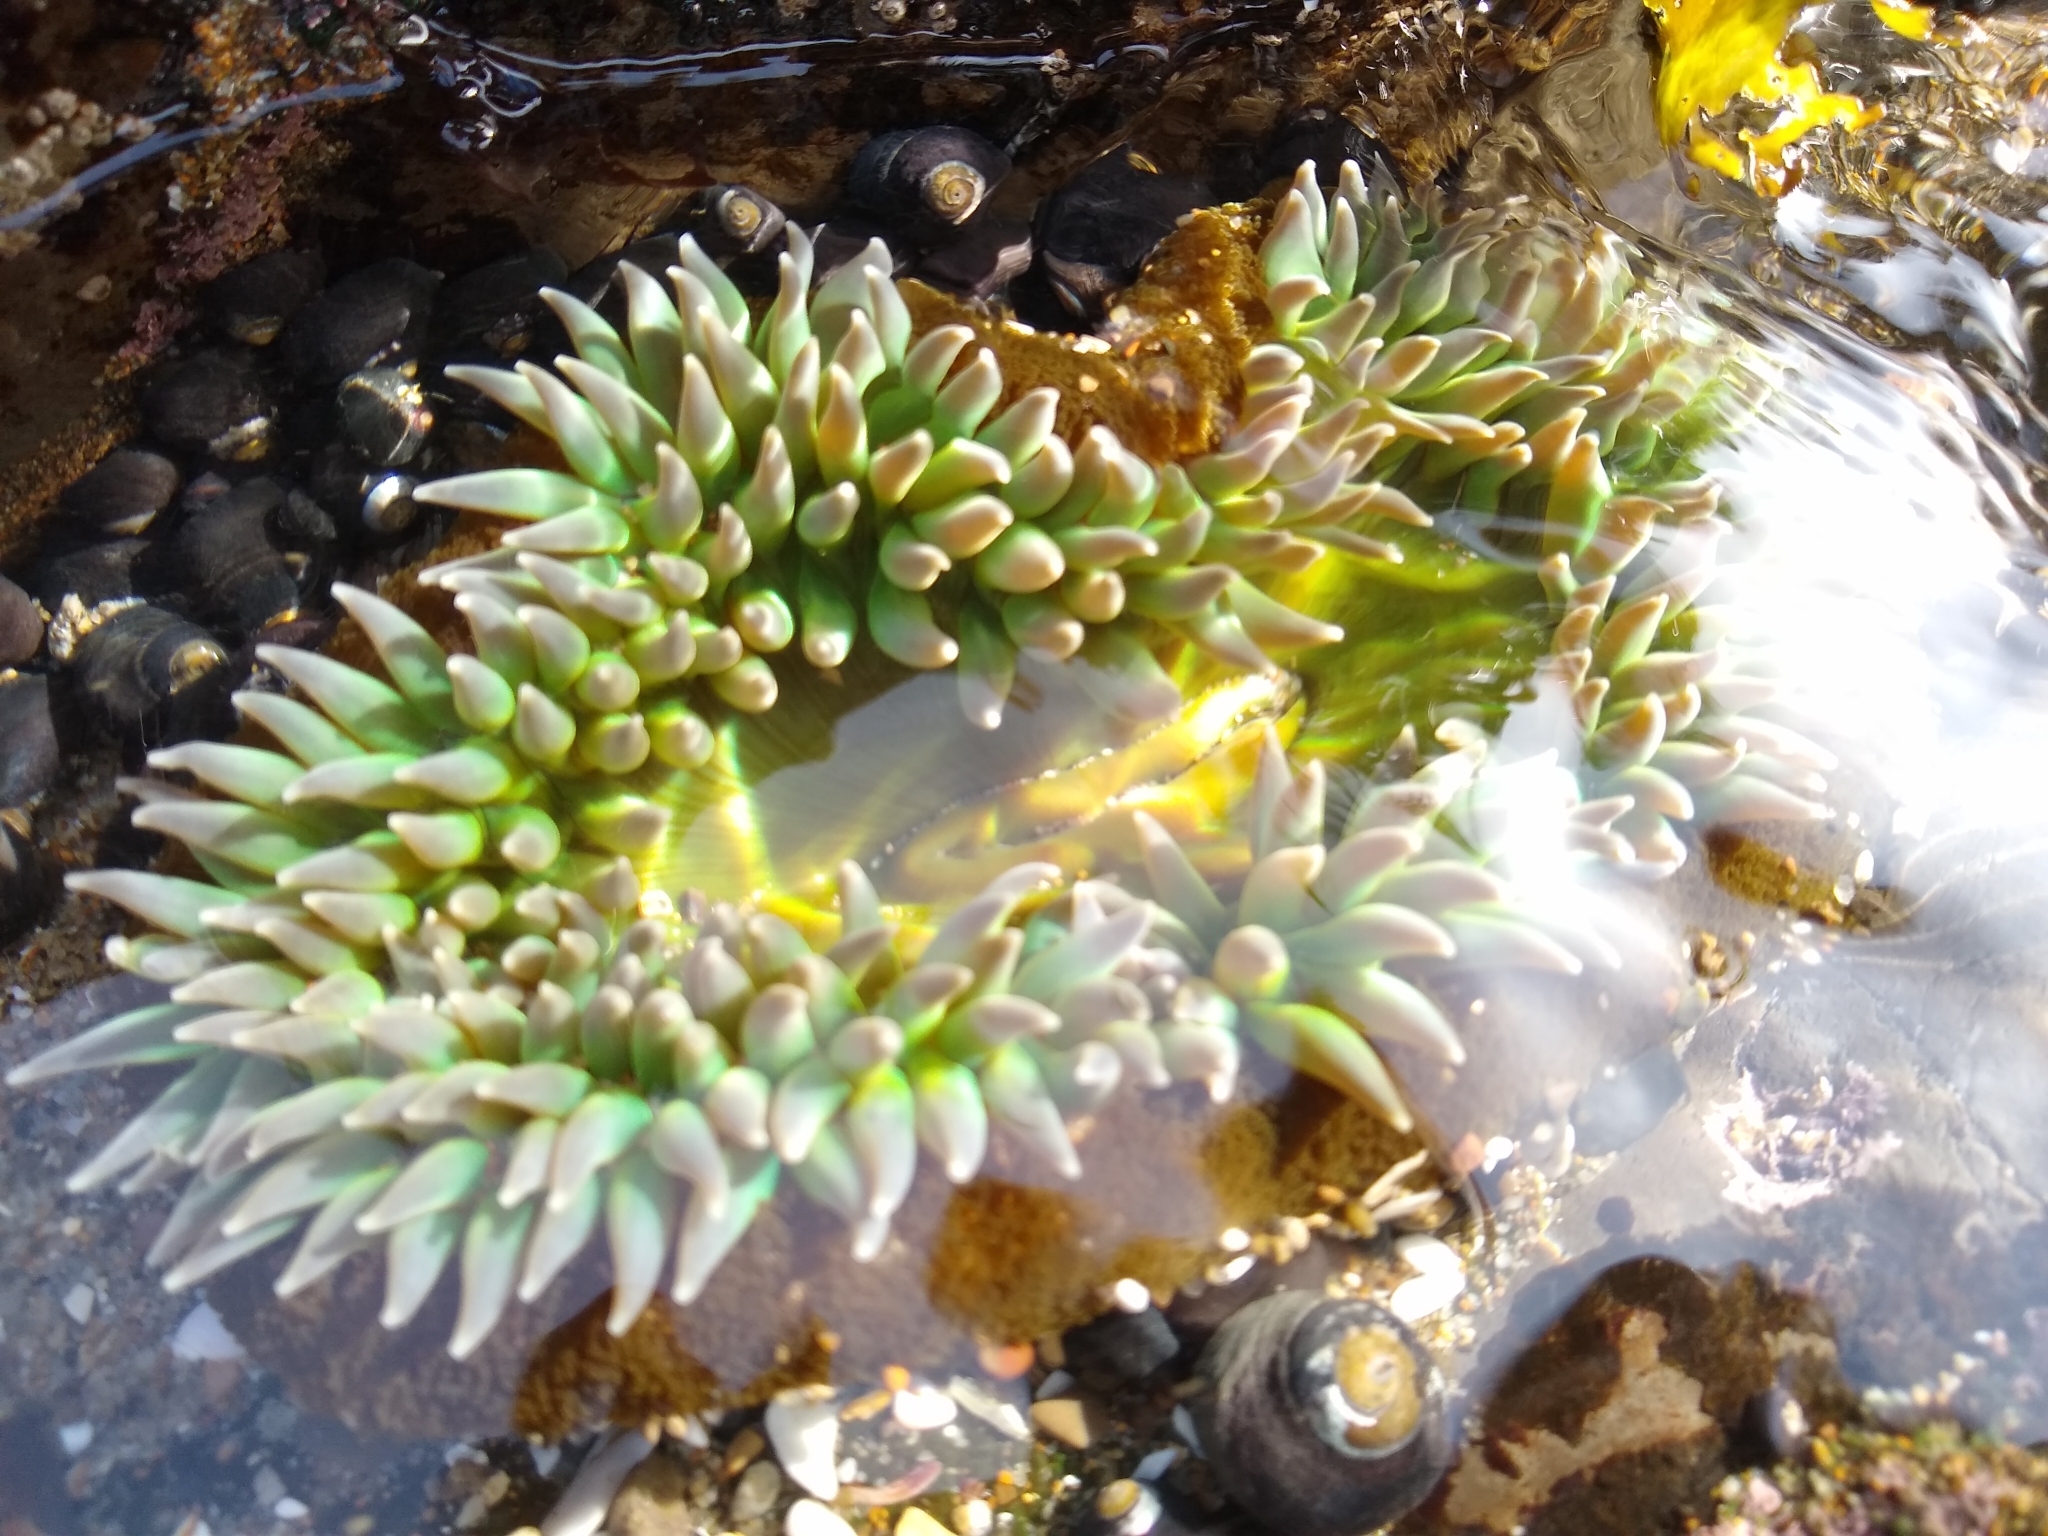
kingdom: Animalia
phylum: Cnidaria
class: Anthozoa
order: Actiniaria
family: Actiniidae
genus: Anthopleura
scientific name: Anthopleura xanthogrammica
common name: Giant green anemone
